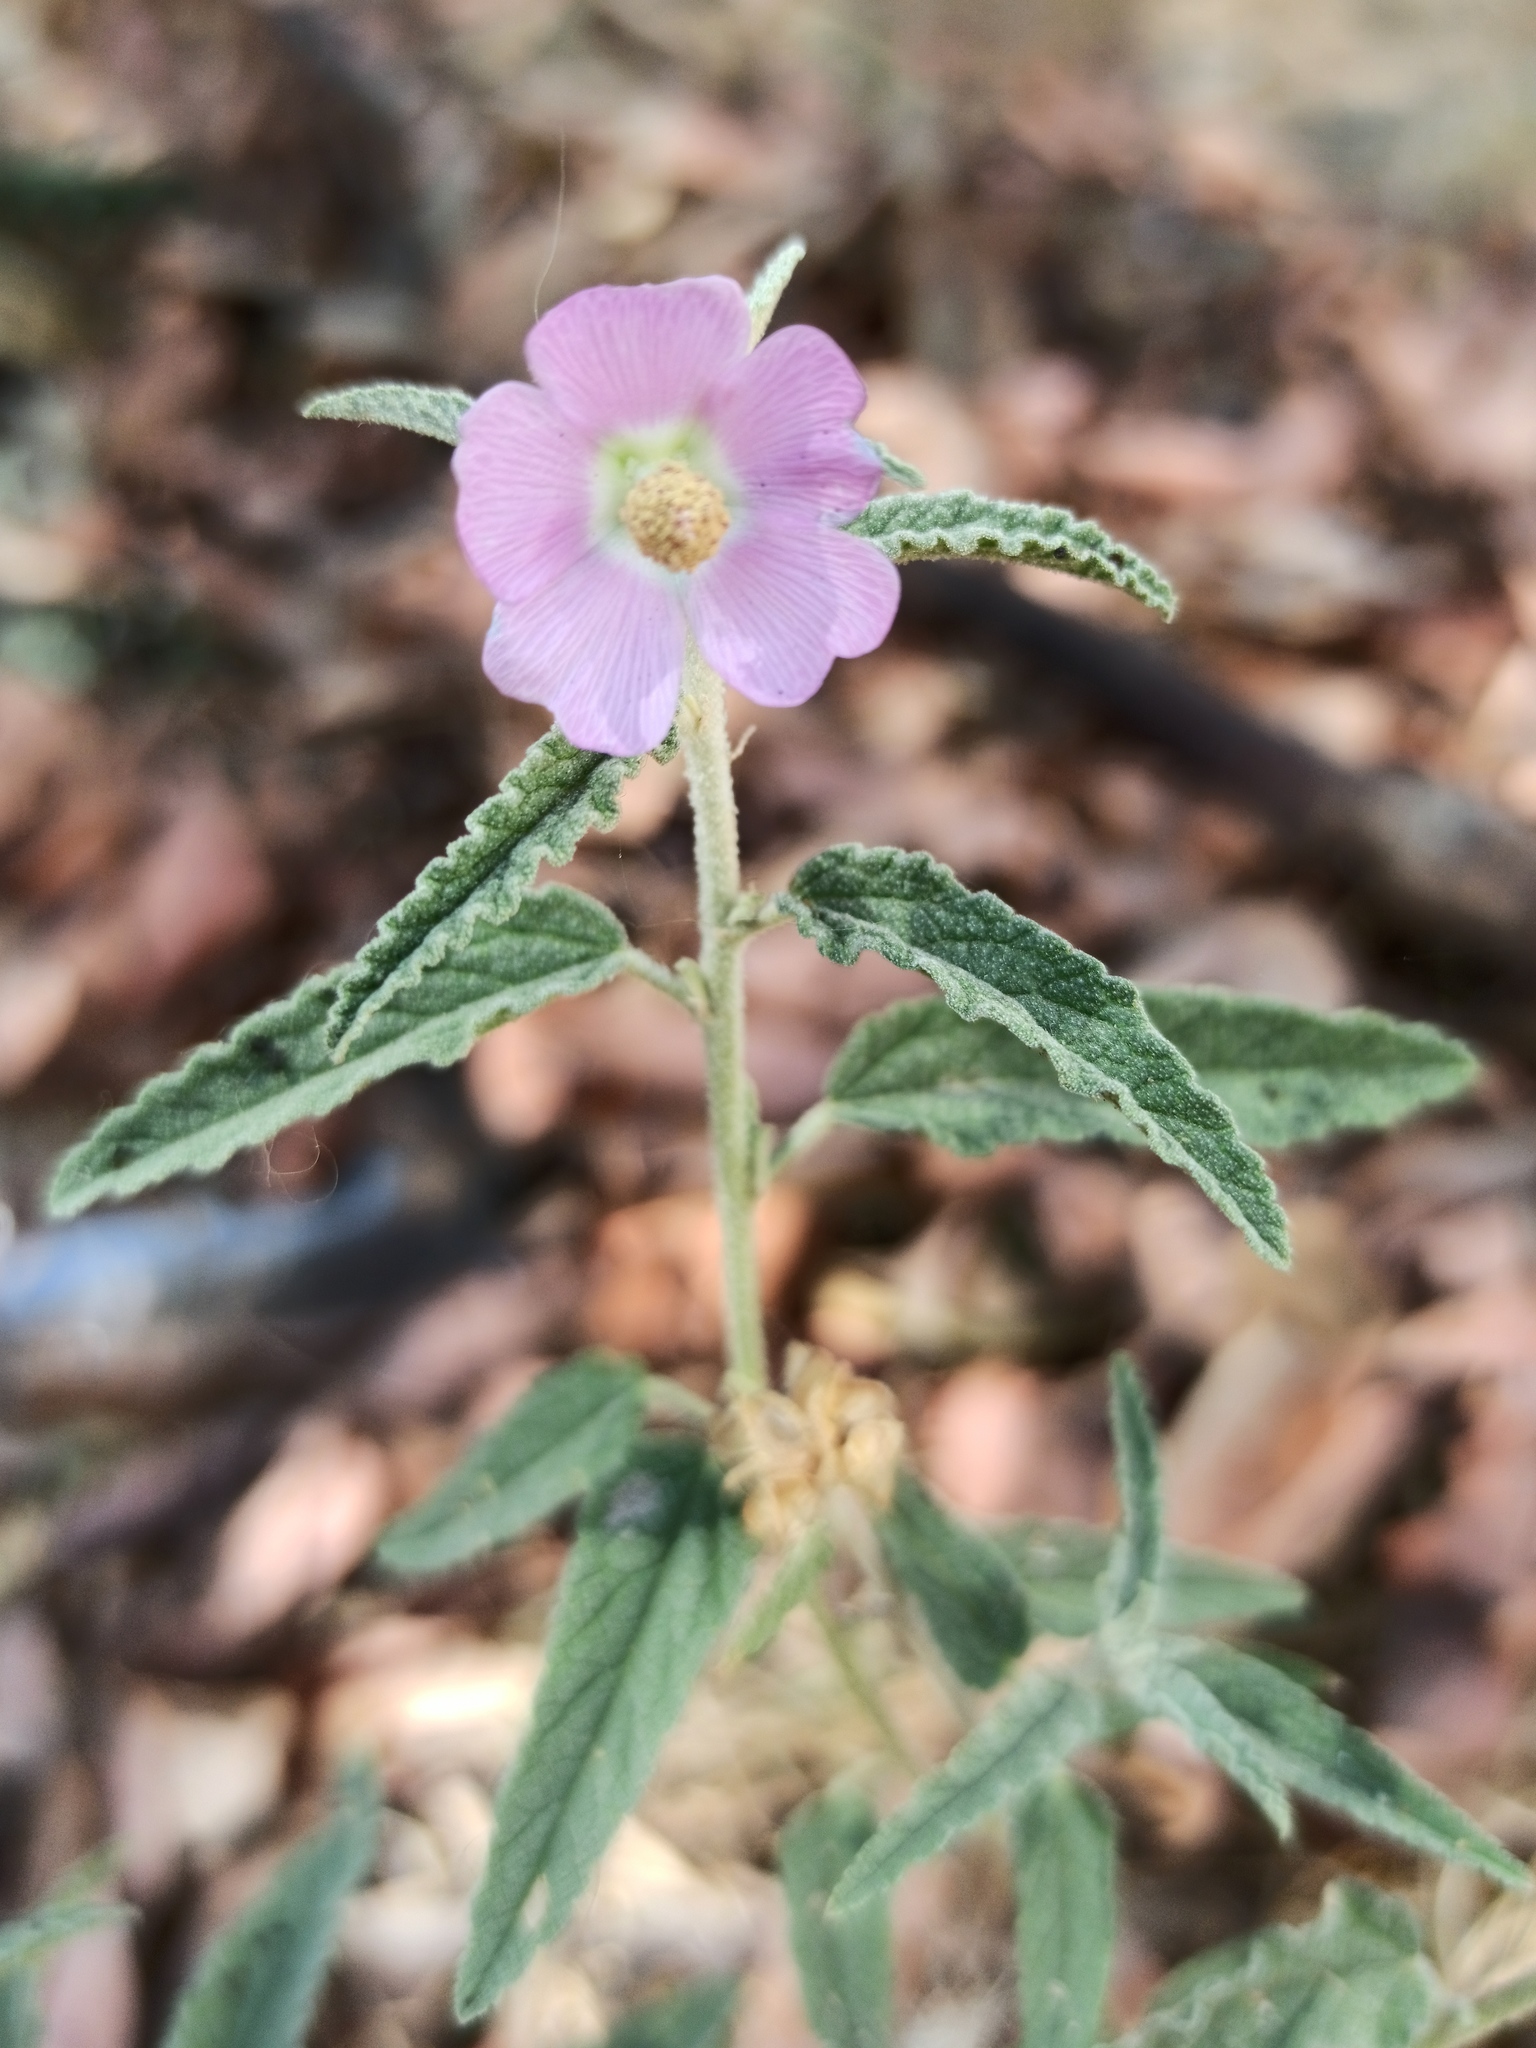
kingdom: Plantae
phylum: Tracheophyta
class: Magnoliopsida
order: Malvales
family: Malvaceae
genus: Sphaeralcea
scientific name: Sphaeralcea angustifolia
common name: Copper globe-mallow
